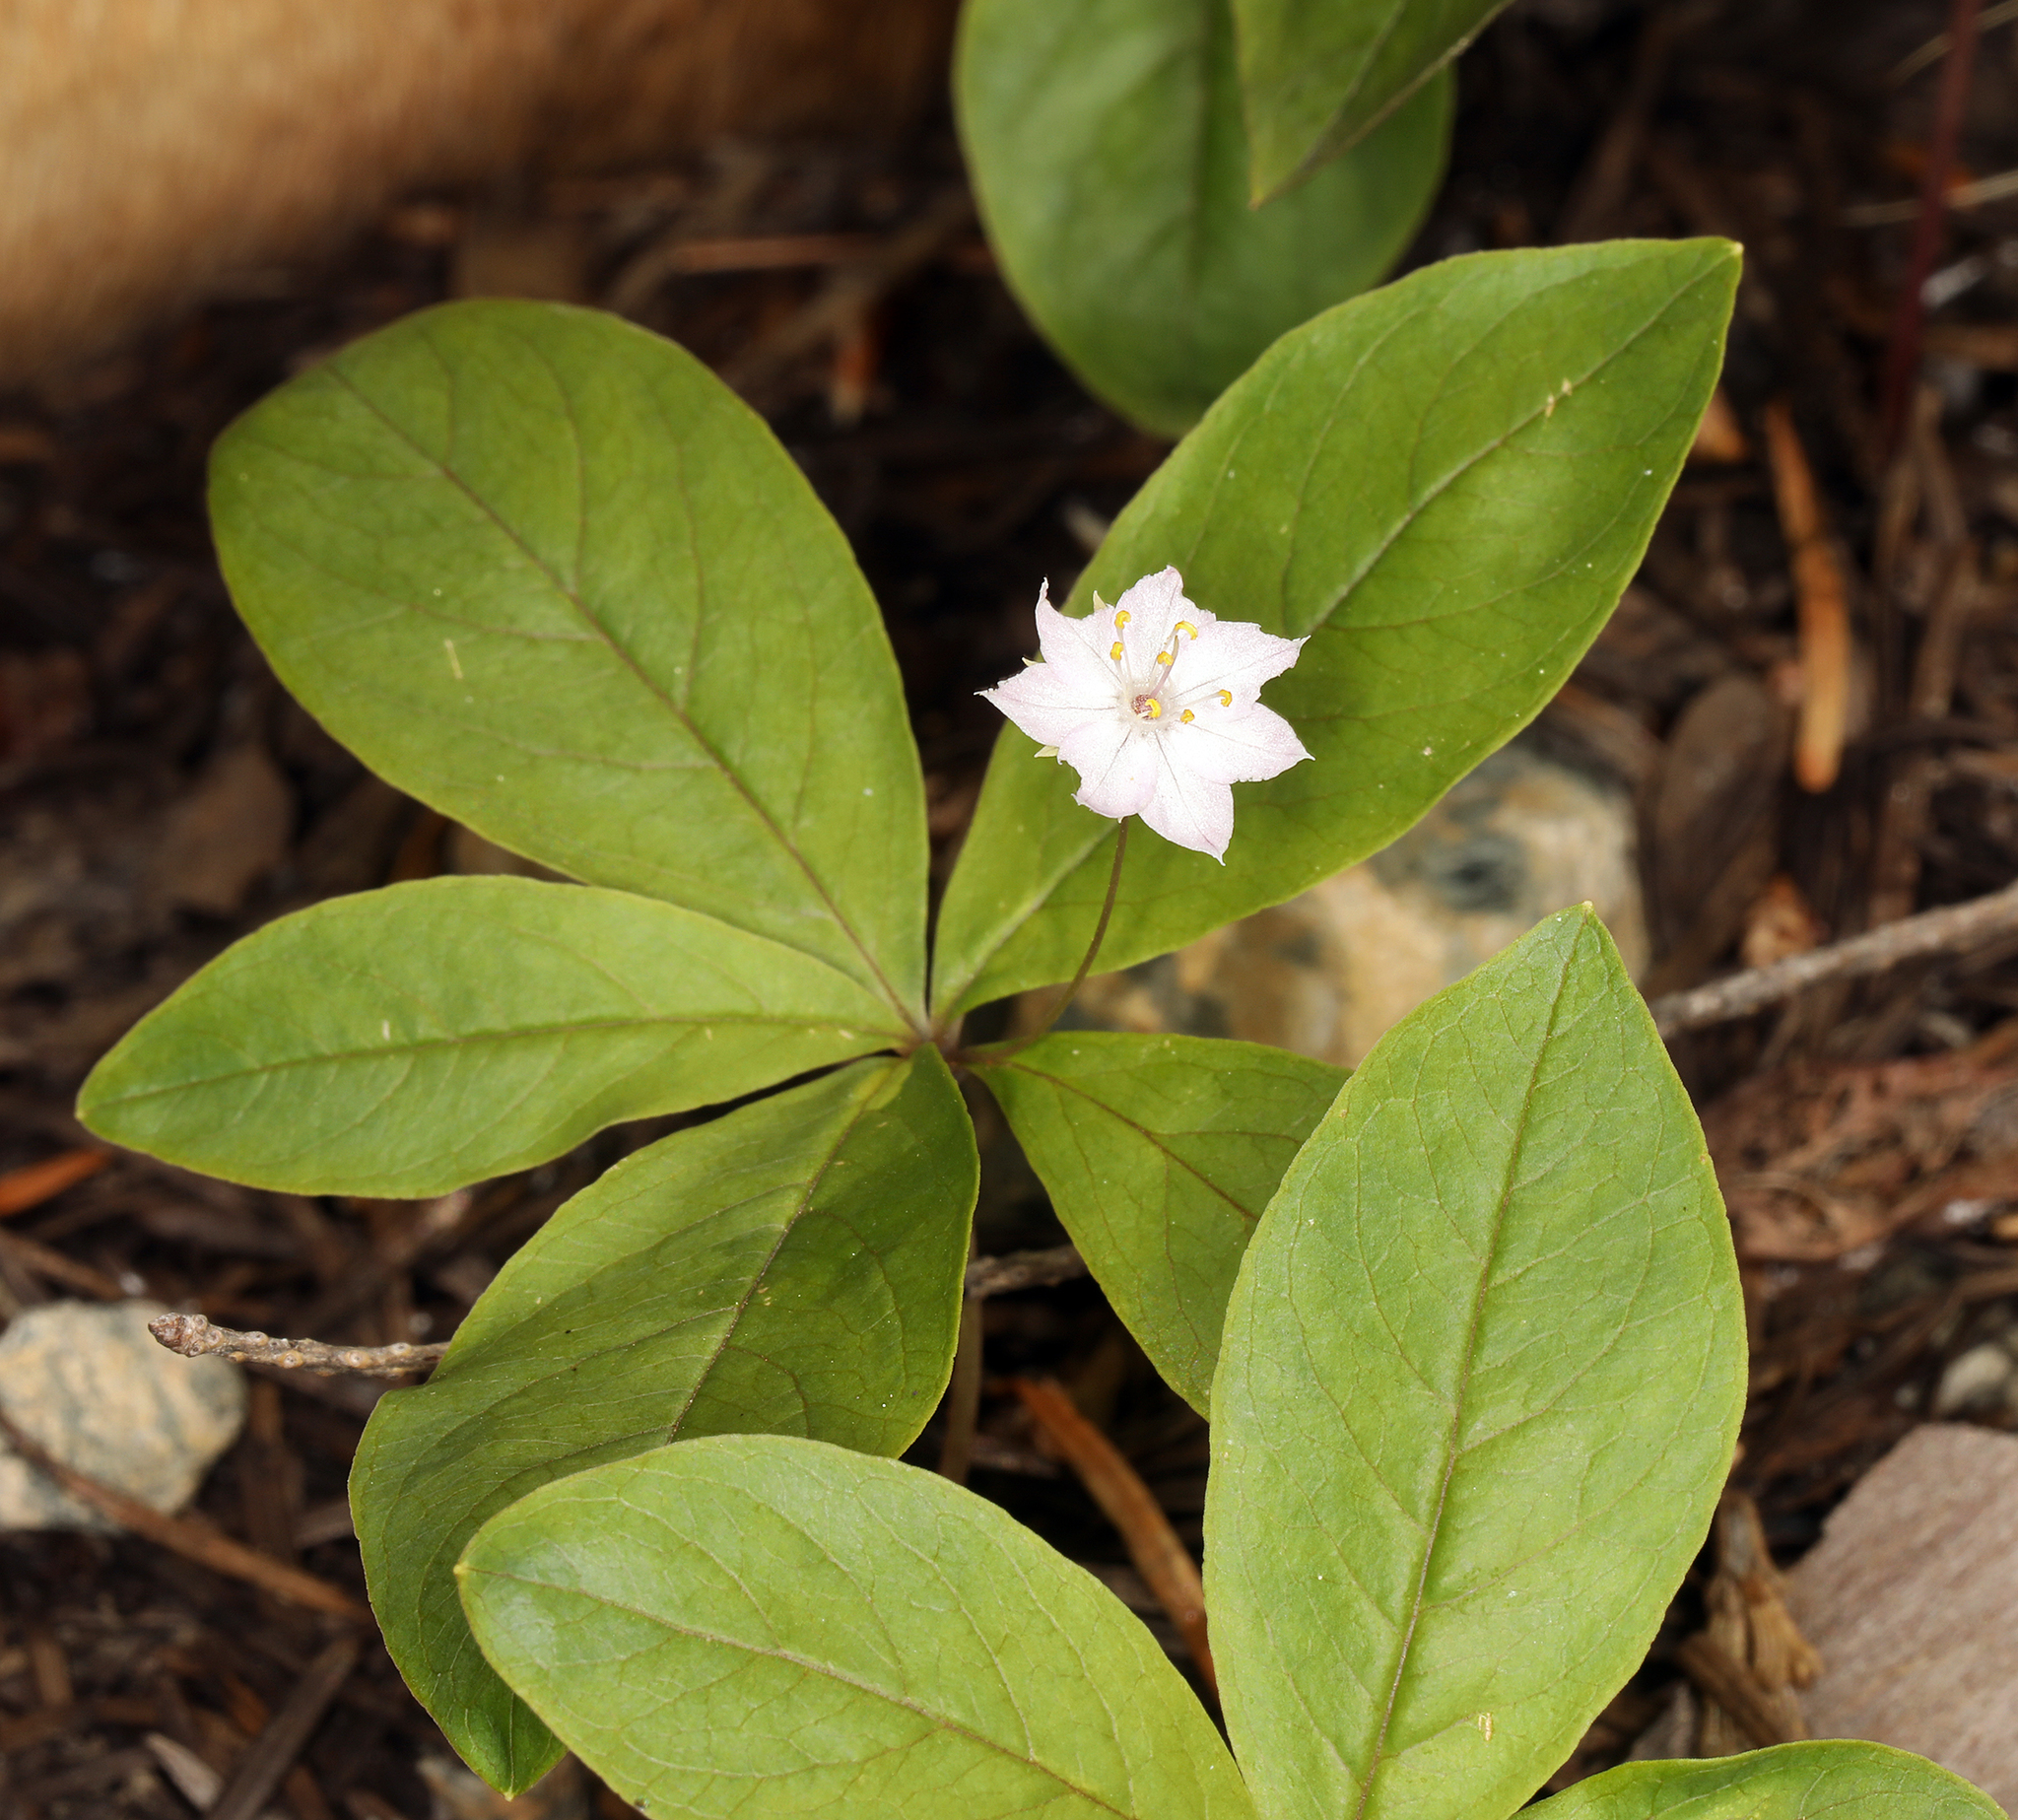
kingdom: Plantae
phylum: Tracheophyta
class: Magnoliopsida
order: Ericales
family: Primulaceae
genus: Lysimachia
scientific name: Lysimachia latifolia
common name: Pacific starflower
